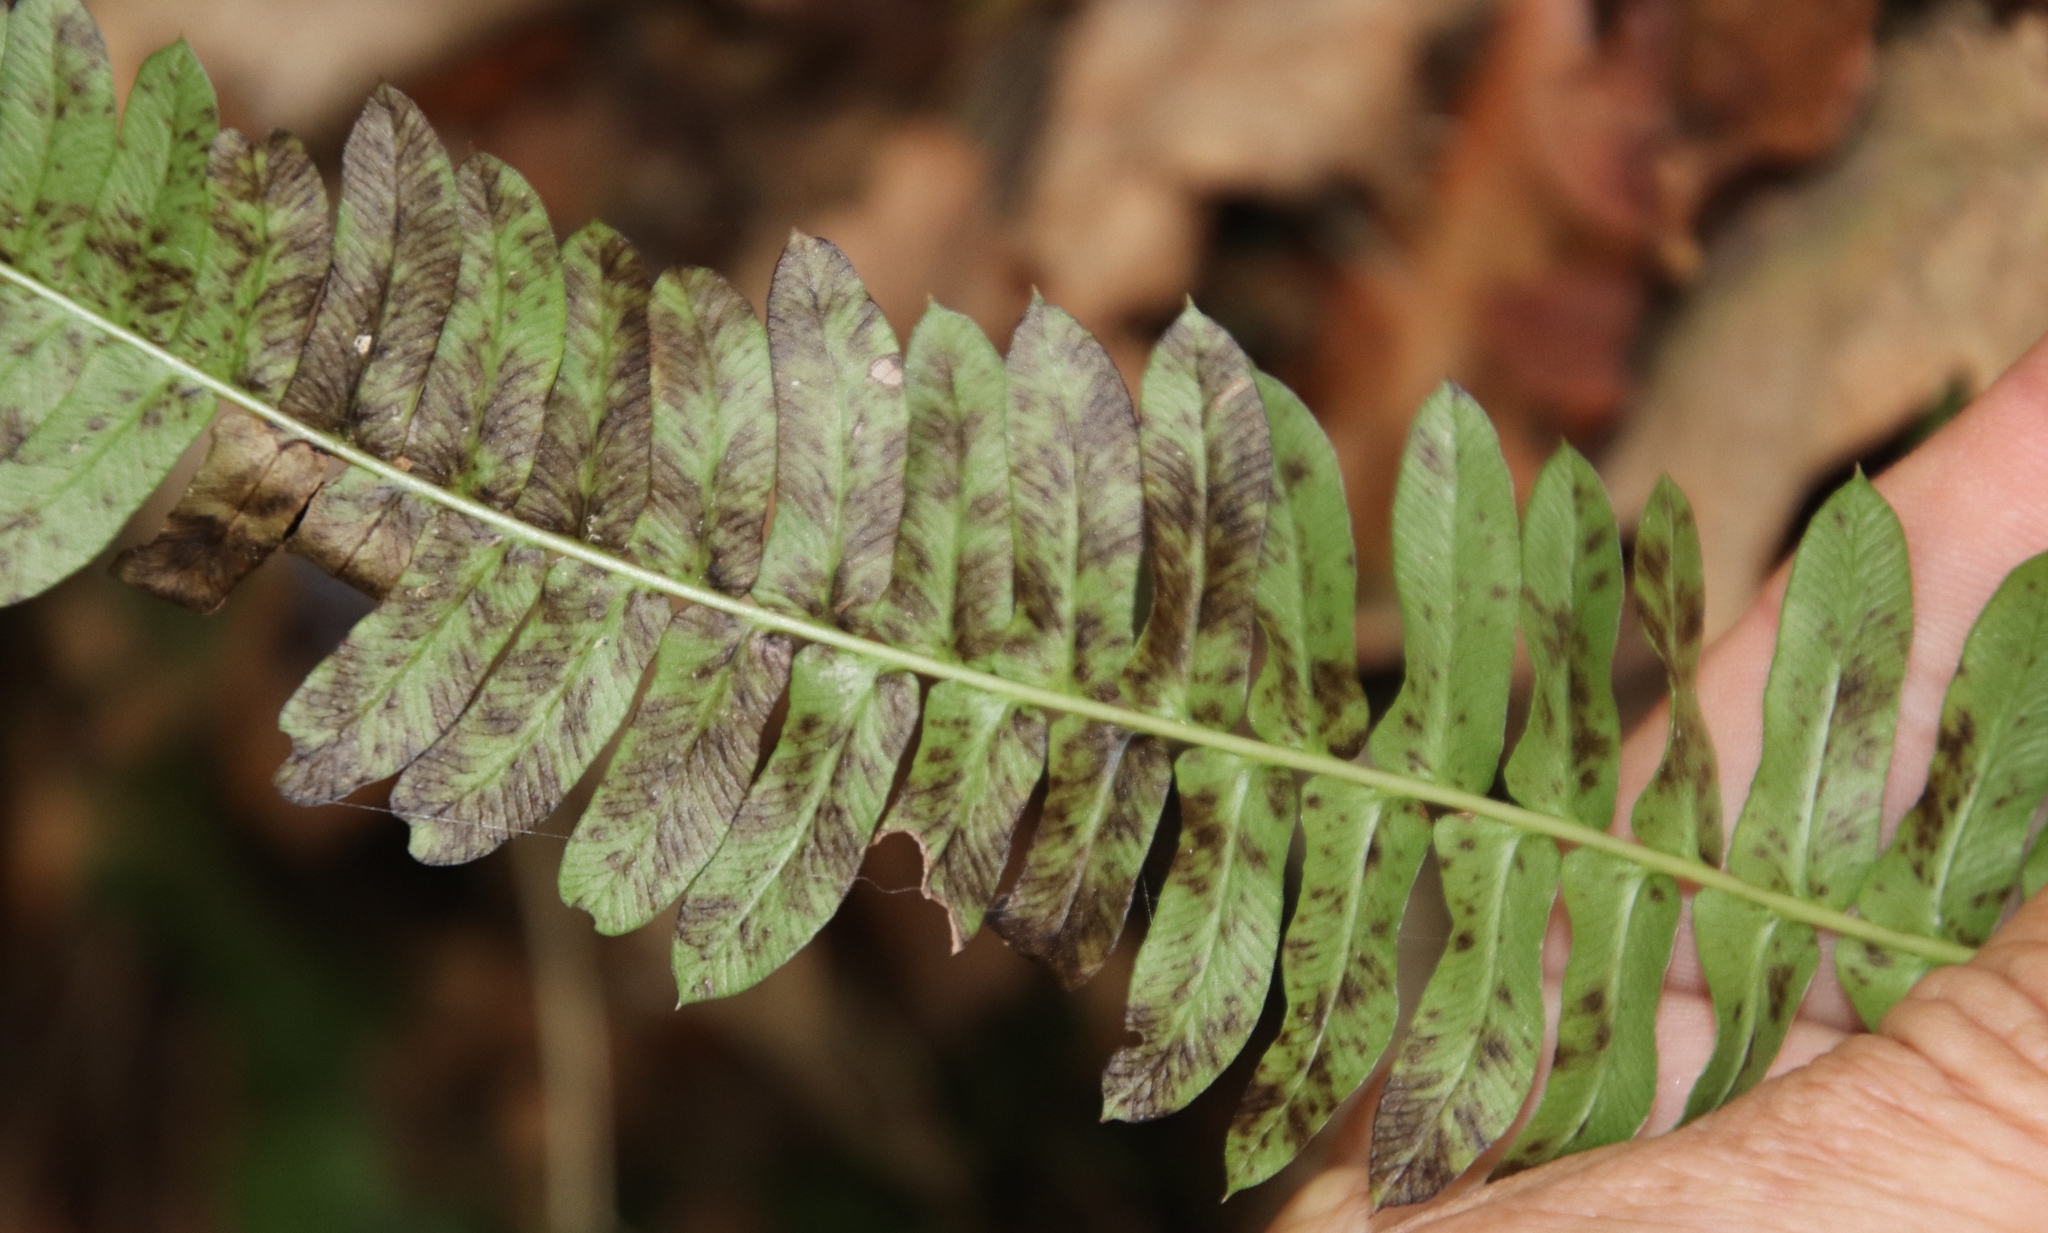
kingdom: Plantae
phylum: Tracheophyta
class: Polypodiopsida
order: Polypodiales
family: Blechnaceae
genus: Blechnum
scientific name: Blechnum australe
